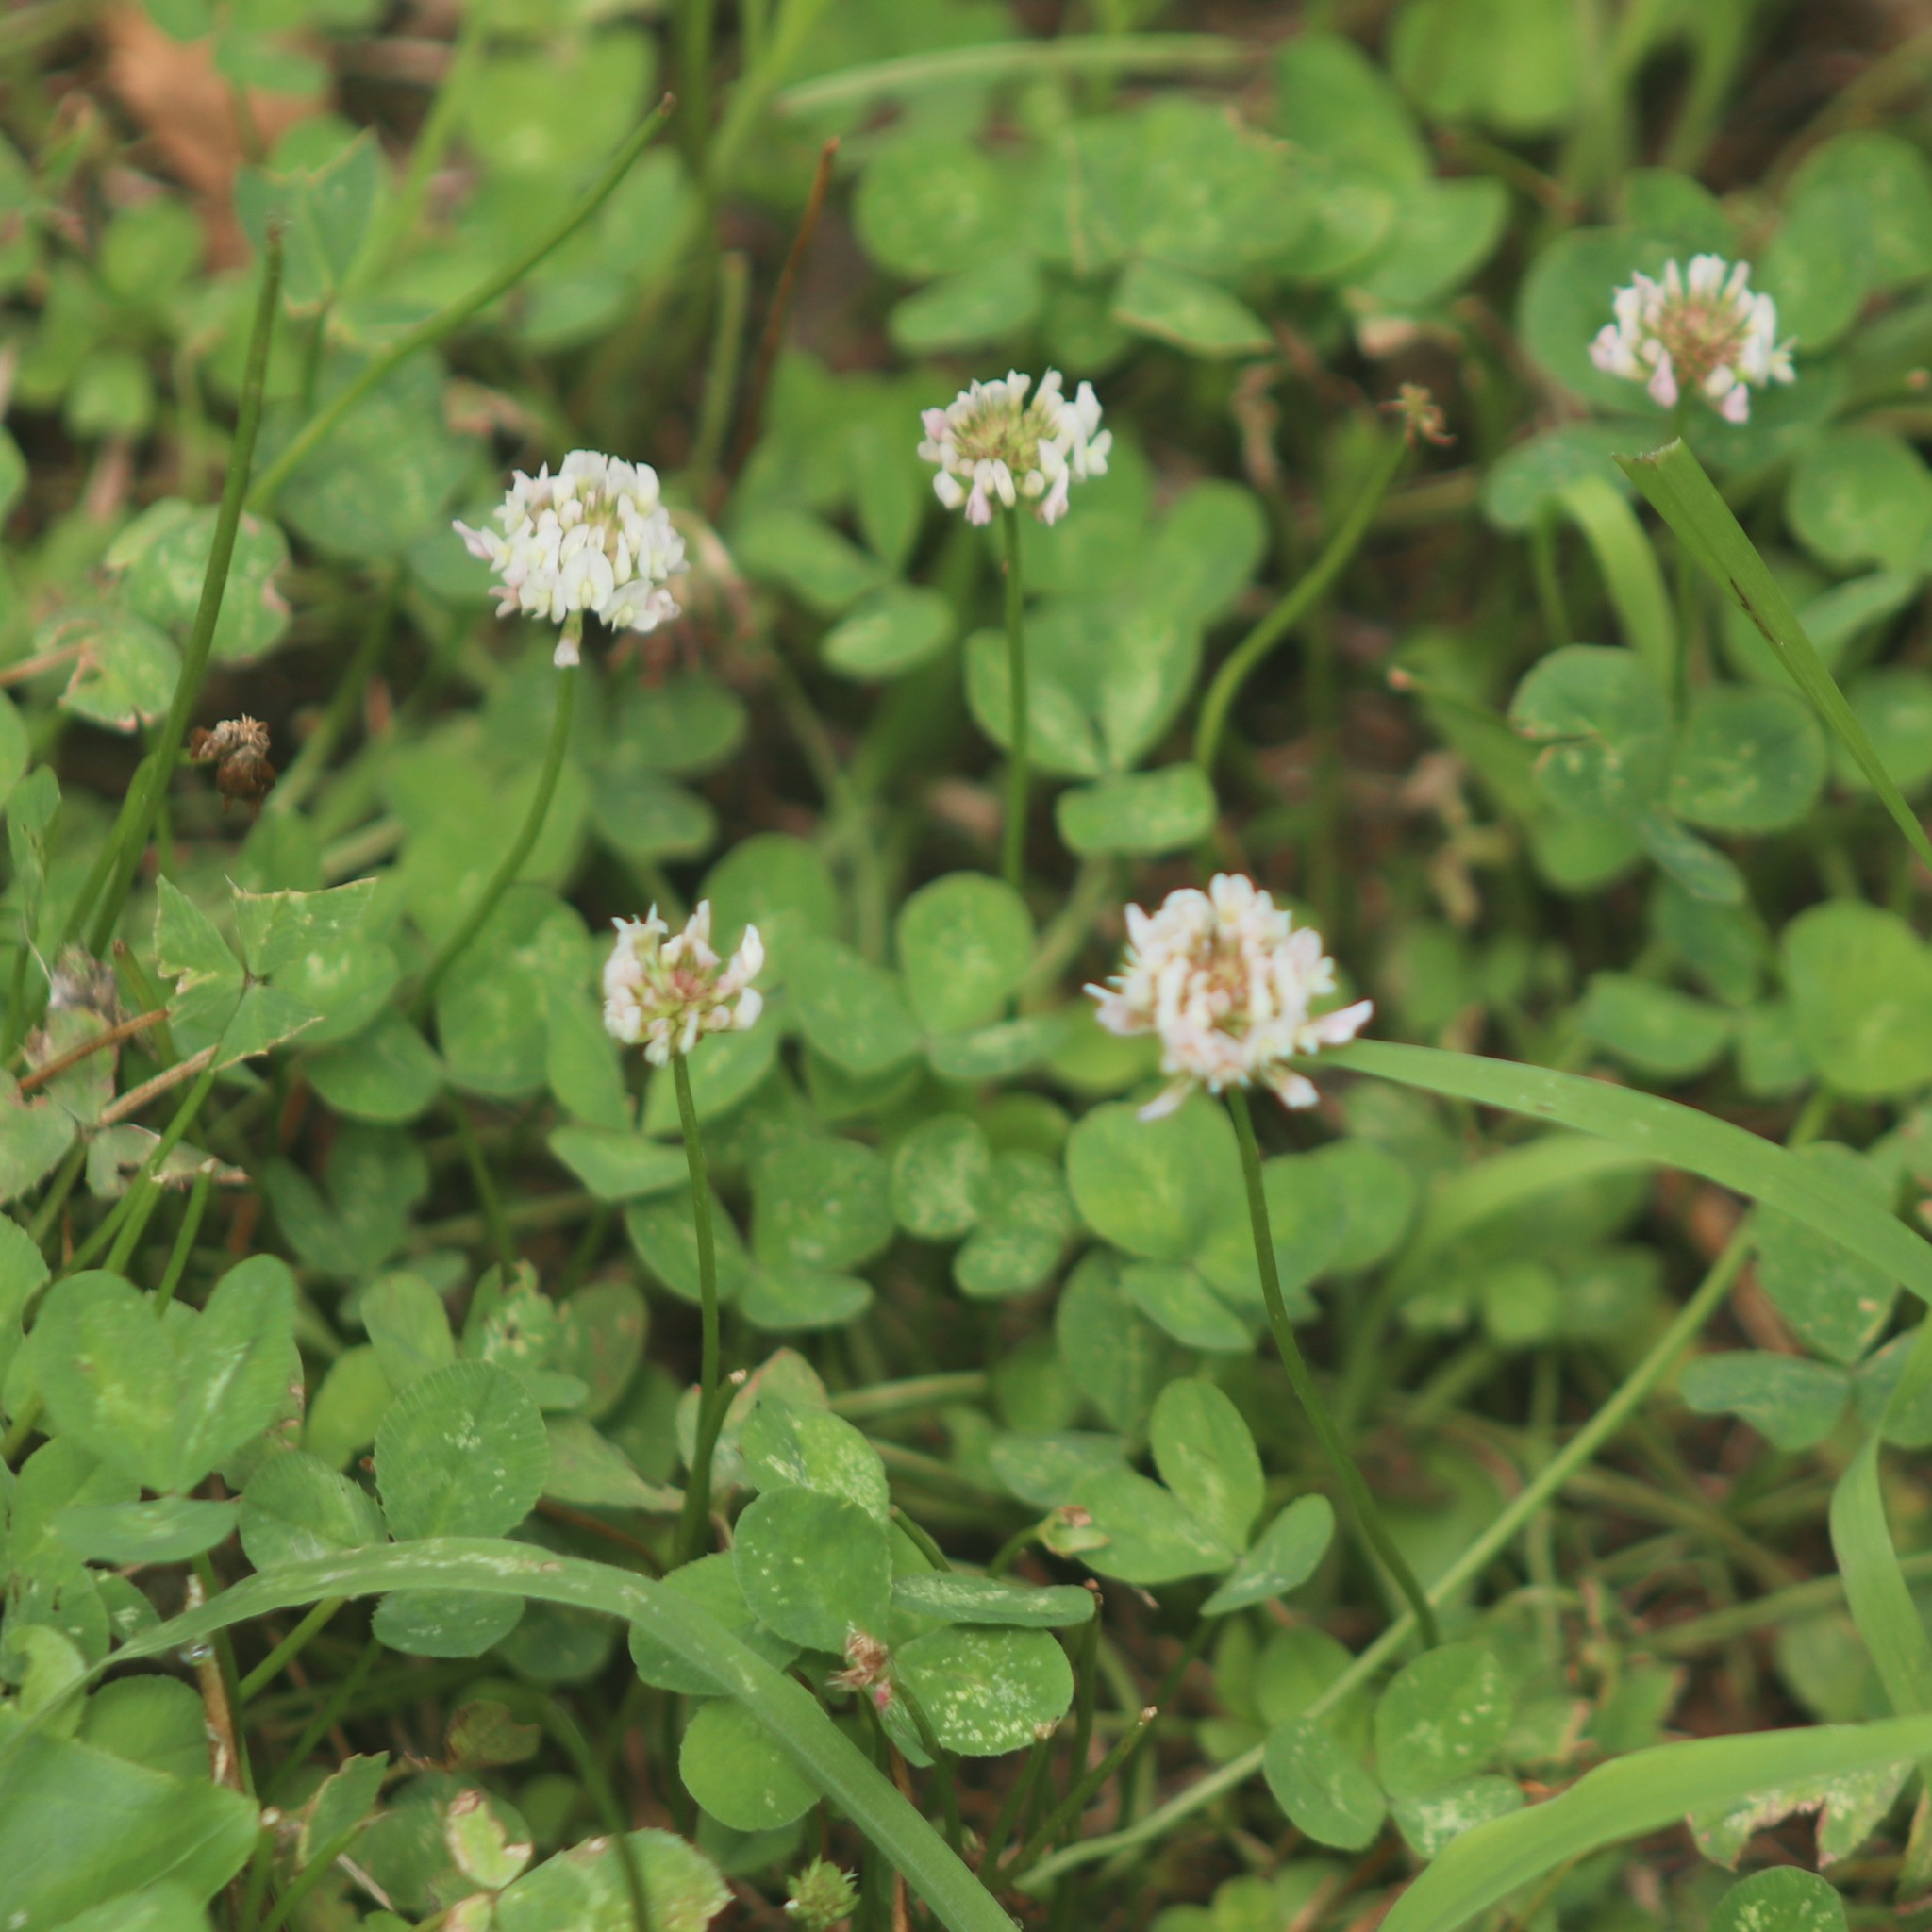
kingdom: Plantae
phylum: Tracheophyta
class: Magnoliopsida
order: Fabales
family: Fabaceae
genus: Trifolium
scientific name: Trifolium repens
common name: White clover
